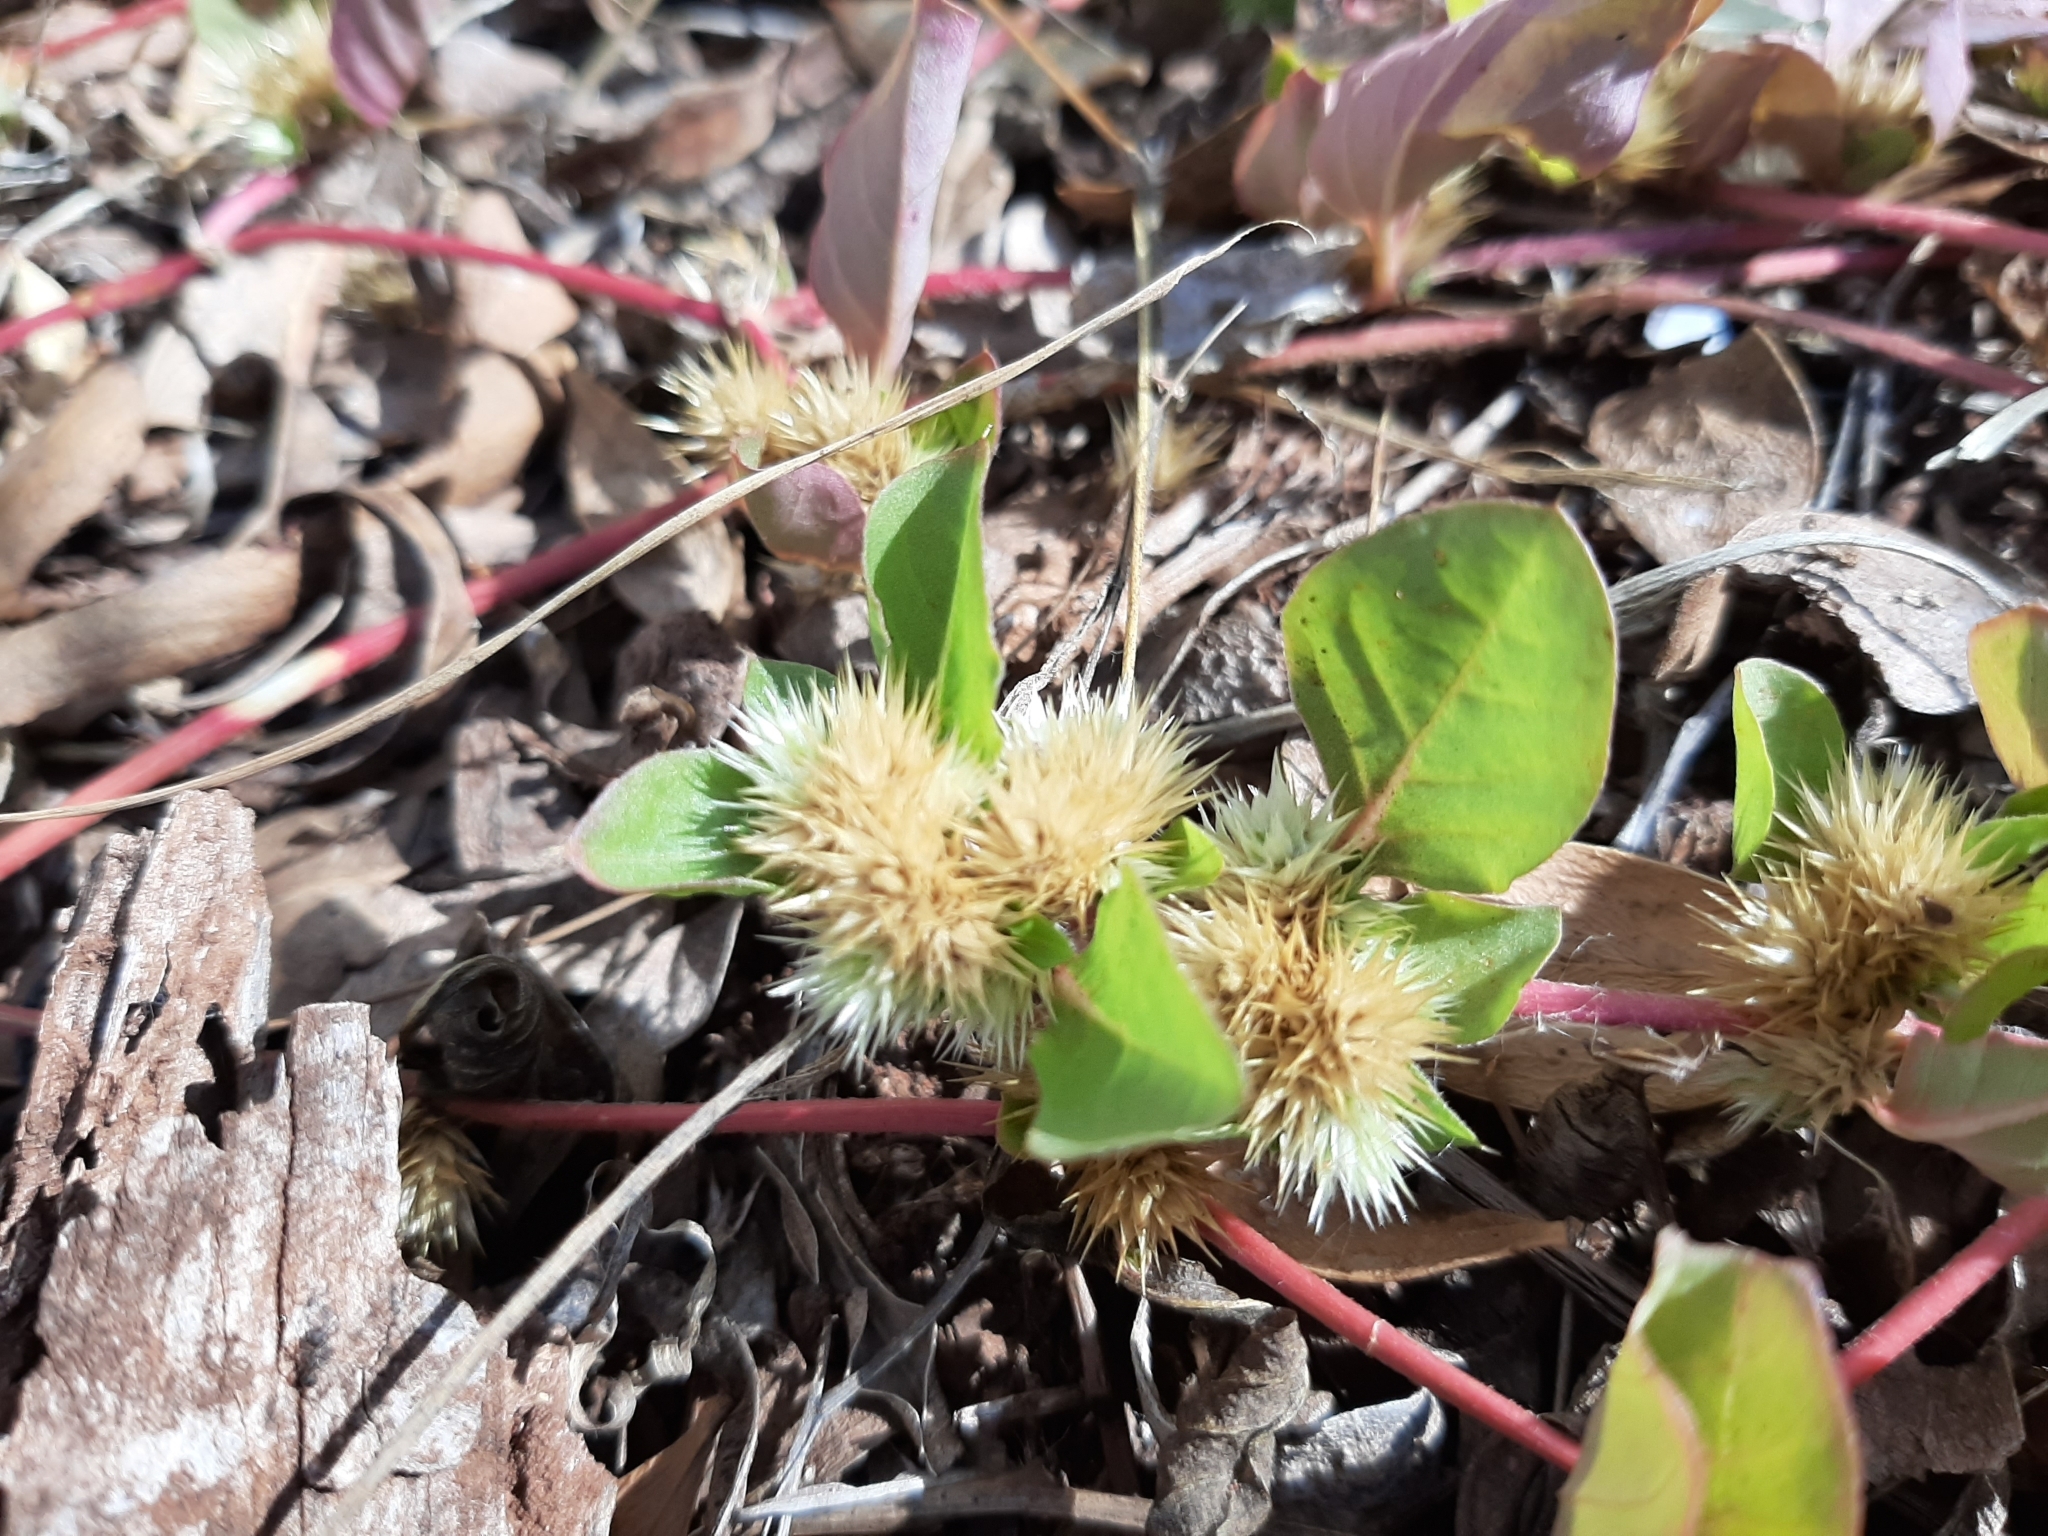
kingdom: Plantae
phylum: Tracheophyta
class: Magnoliopsida
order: Caryophyllales
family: Amaranthaceae
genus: Alternanthera
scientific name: Alternanthera pungens
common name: Khakiweed
